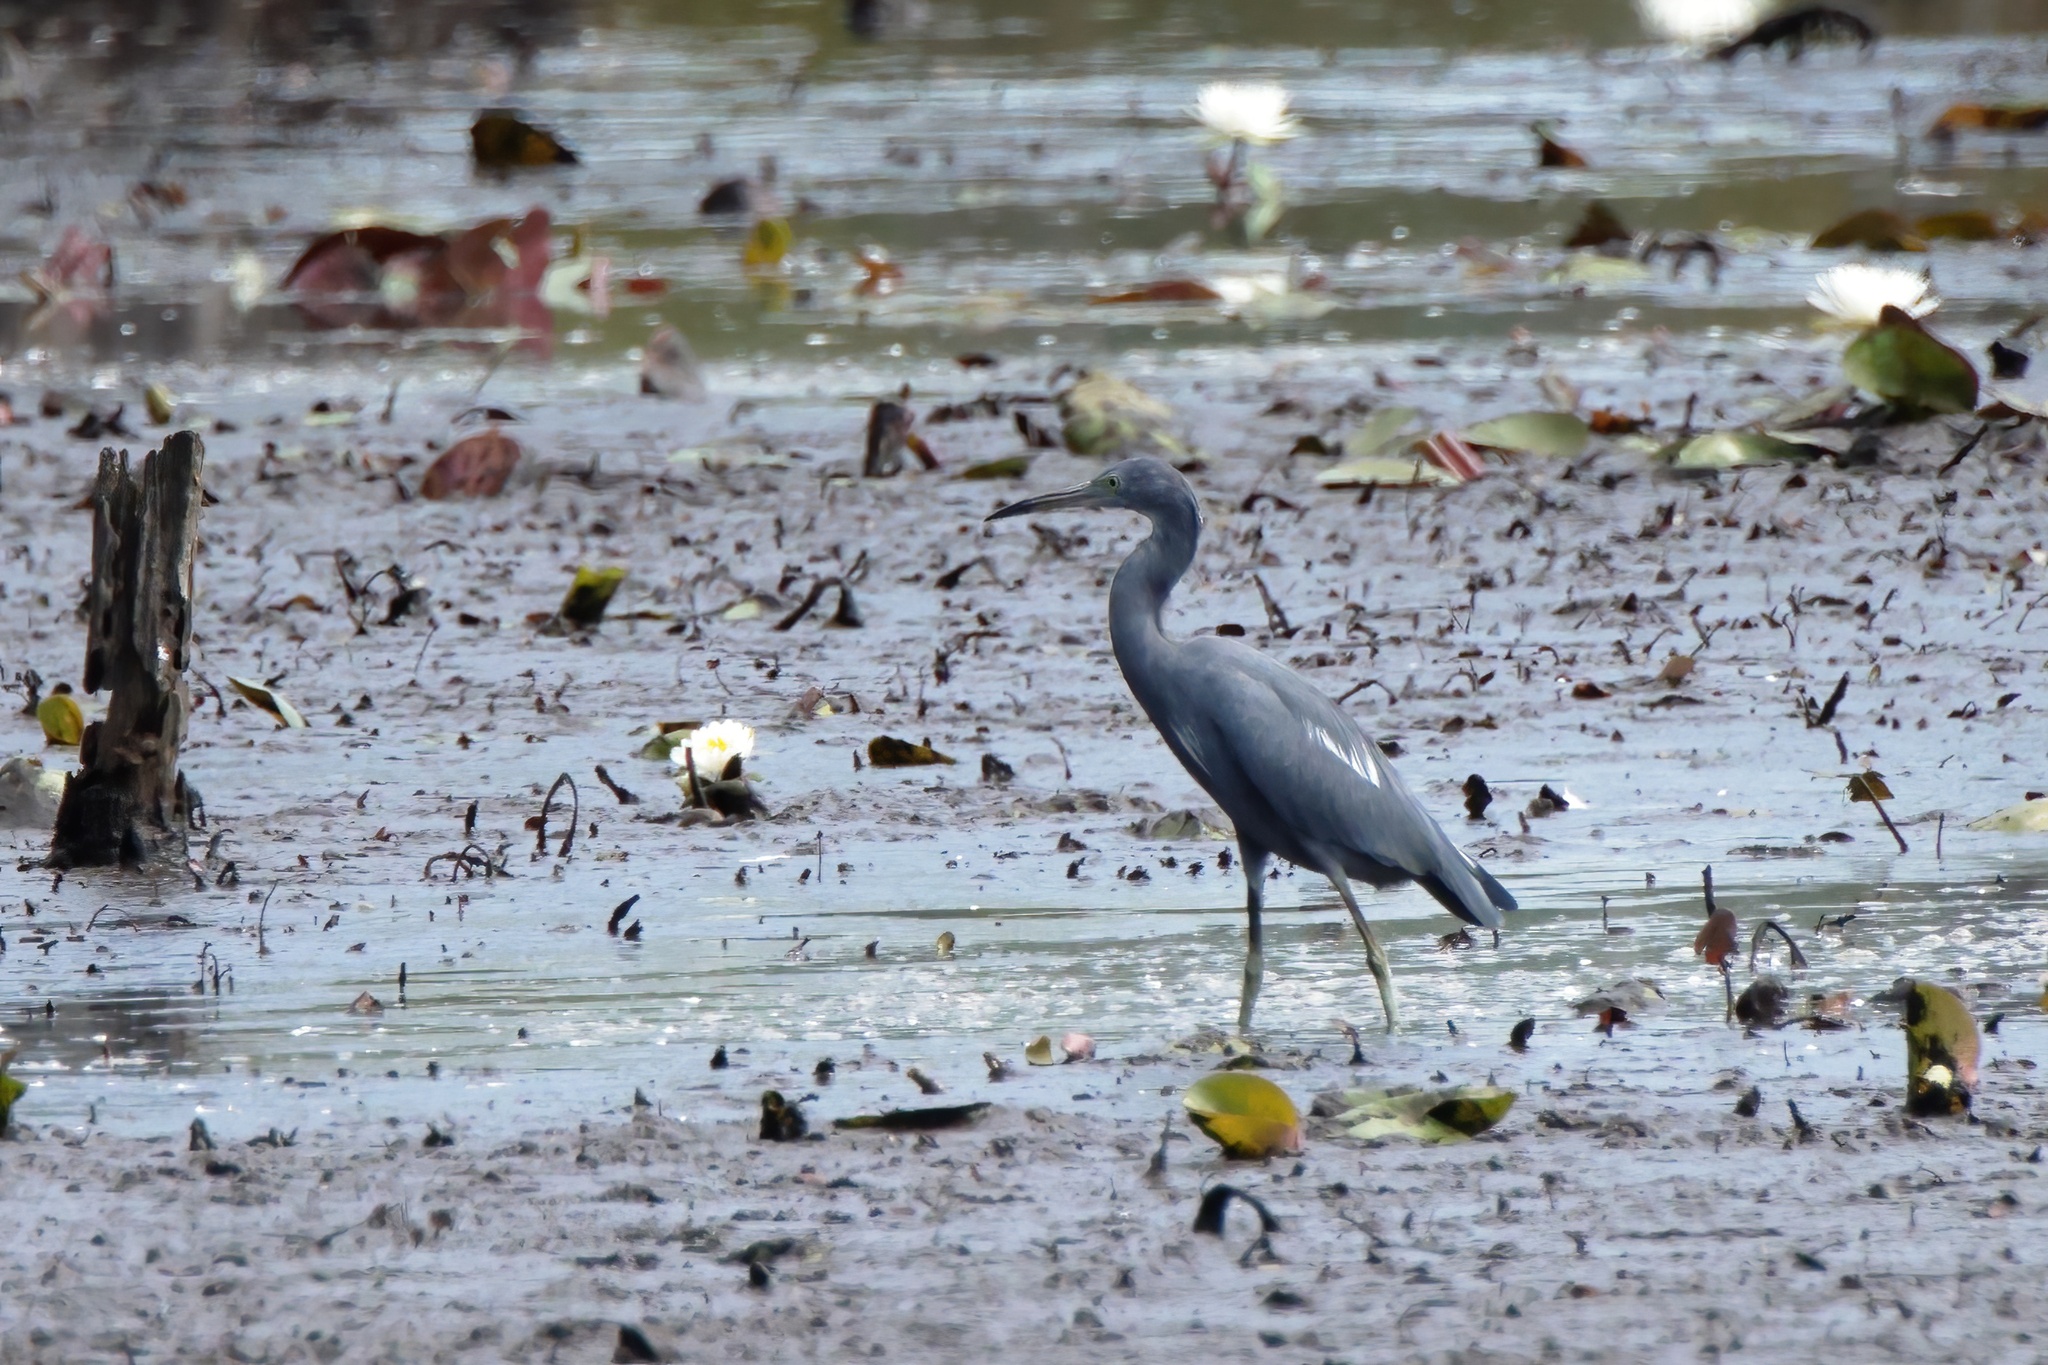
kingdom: Animalia
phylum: Chordata
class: Aves
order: Pelecaniformes
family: Ardeidae
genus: Egretta
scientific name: Egretta caerulea
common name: Little blue heron
